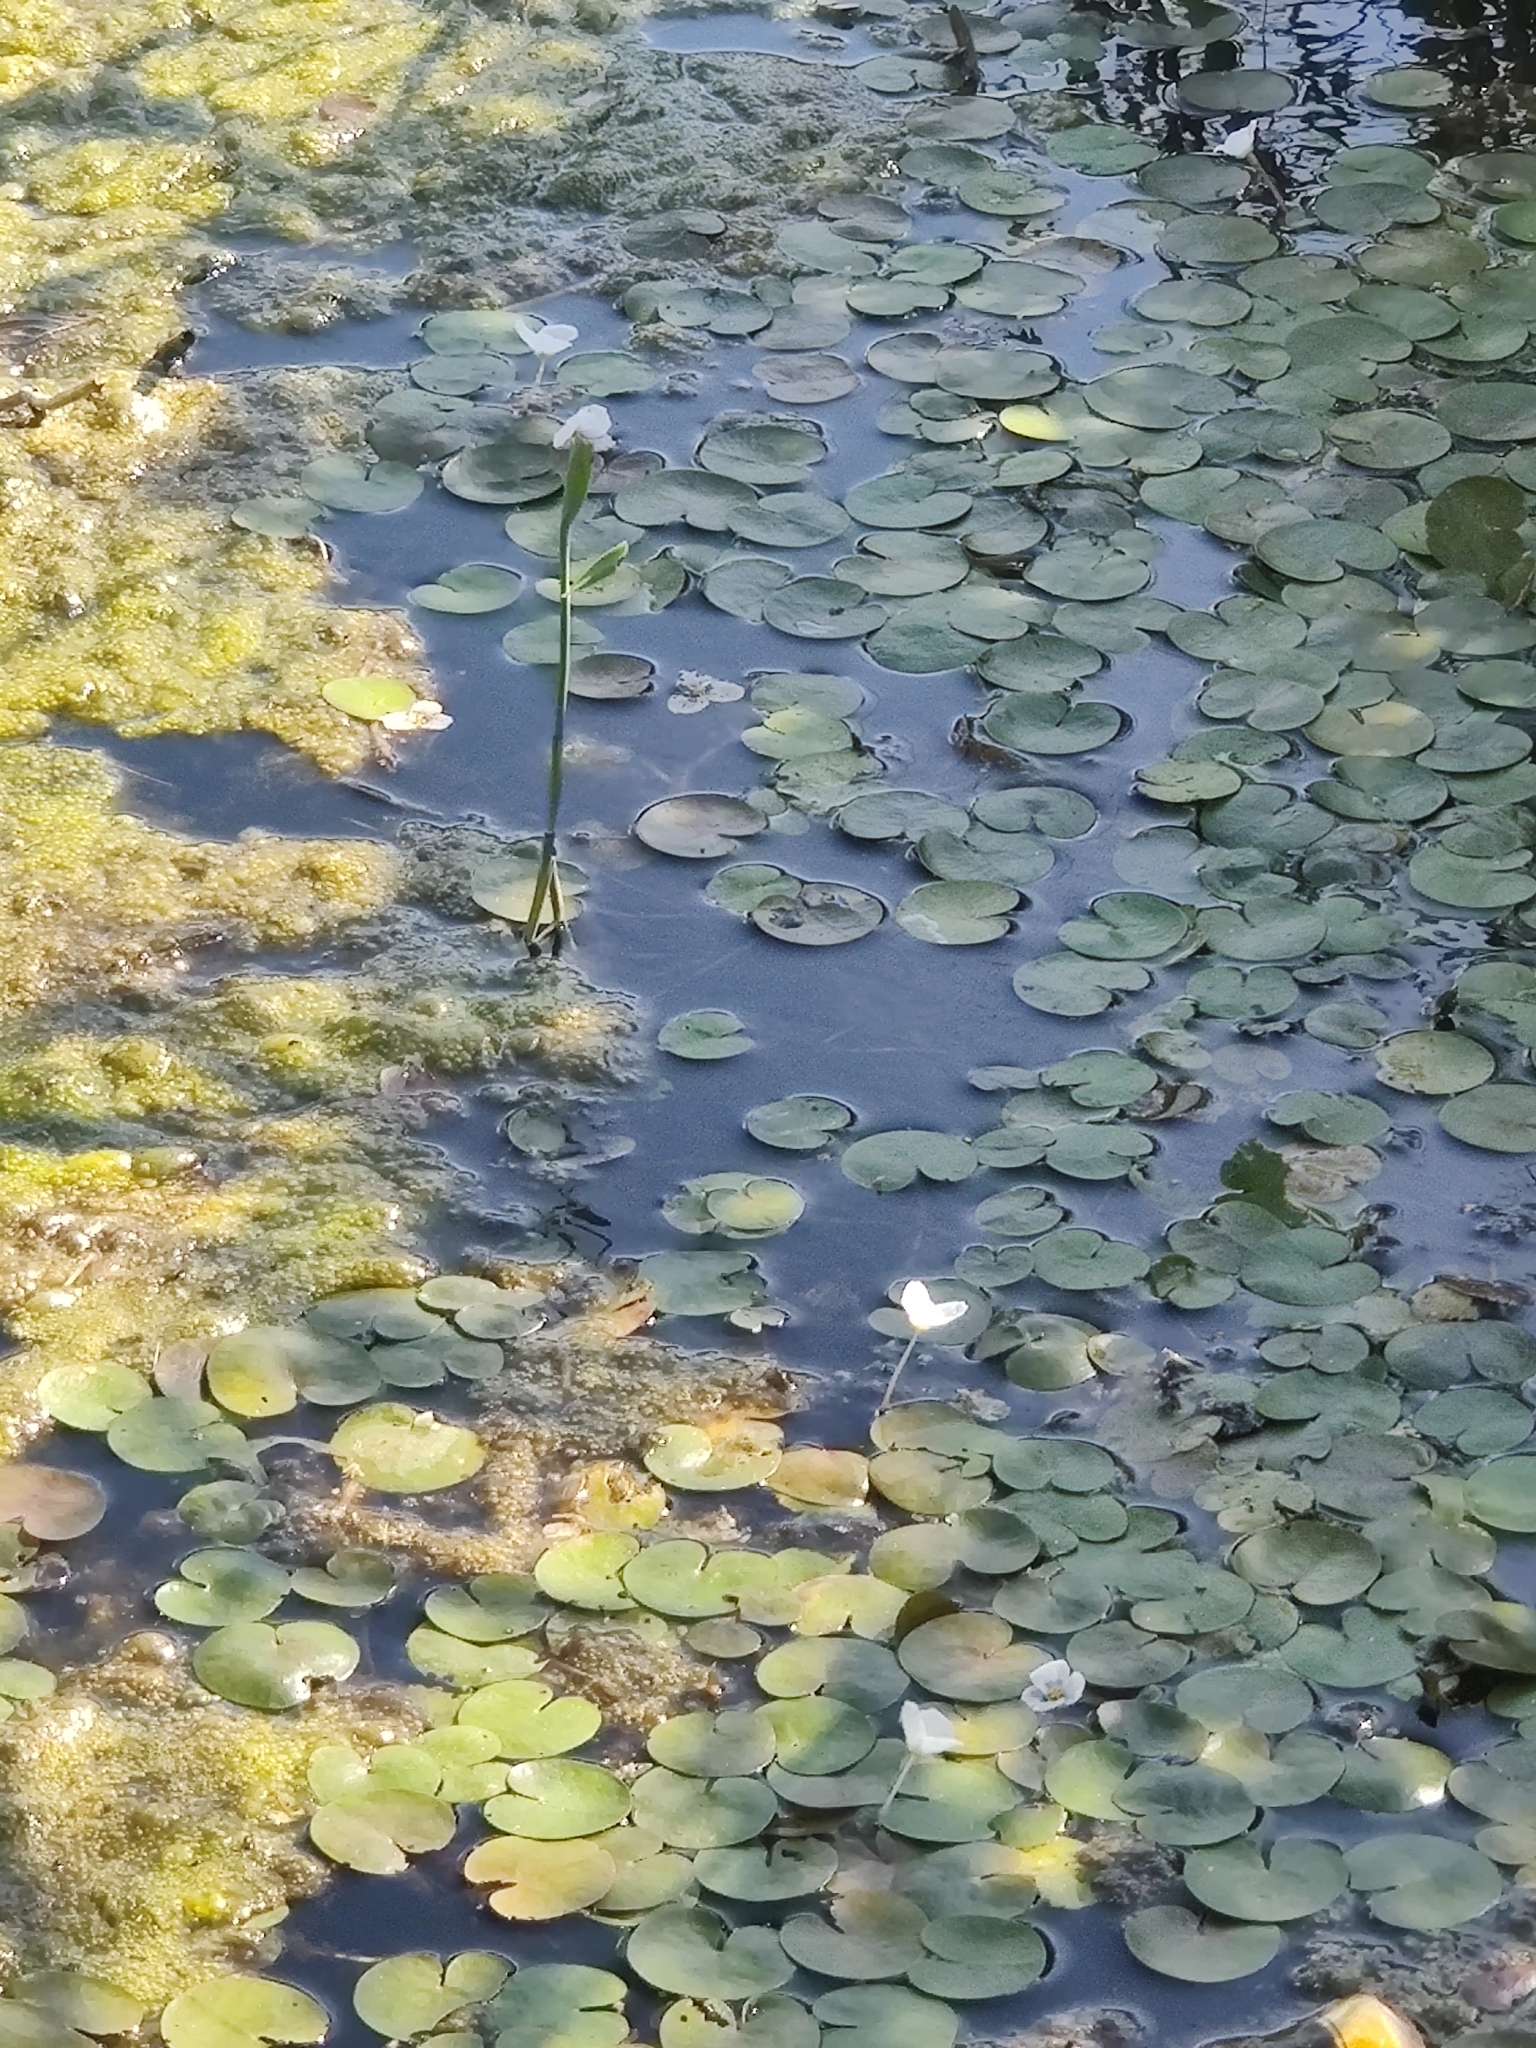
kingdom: Plantae
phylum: Tracheophyta
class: Liliopsida
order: Alismatales
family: Hydrocharitaceae
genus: Hydrocharis
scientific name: Hydrocharis morsus-ranae
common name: Frogbit
